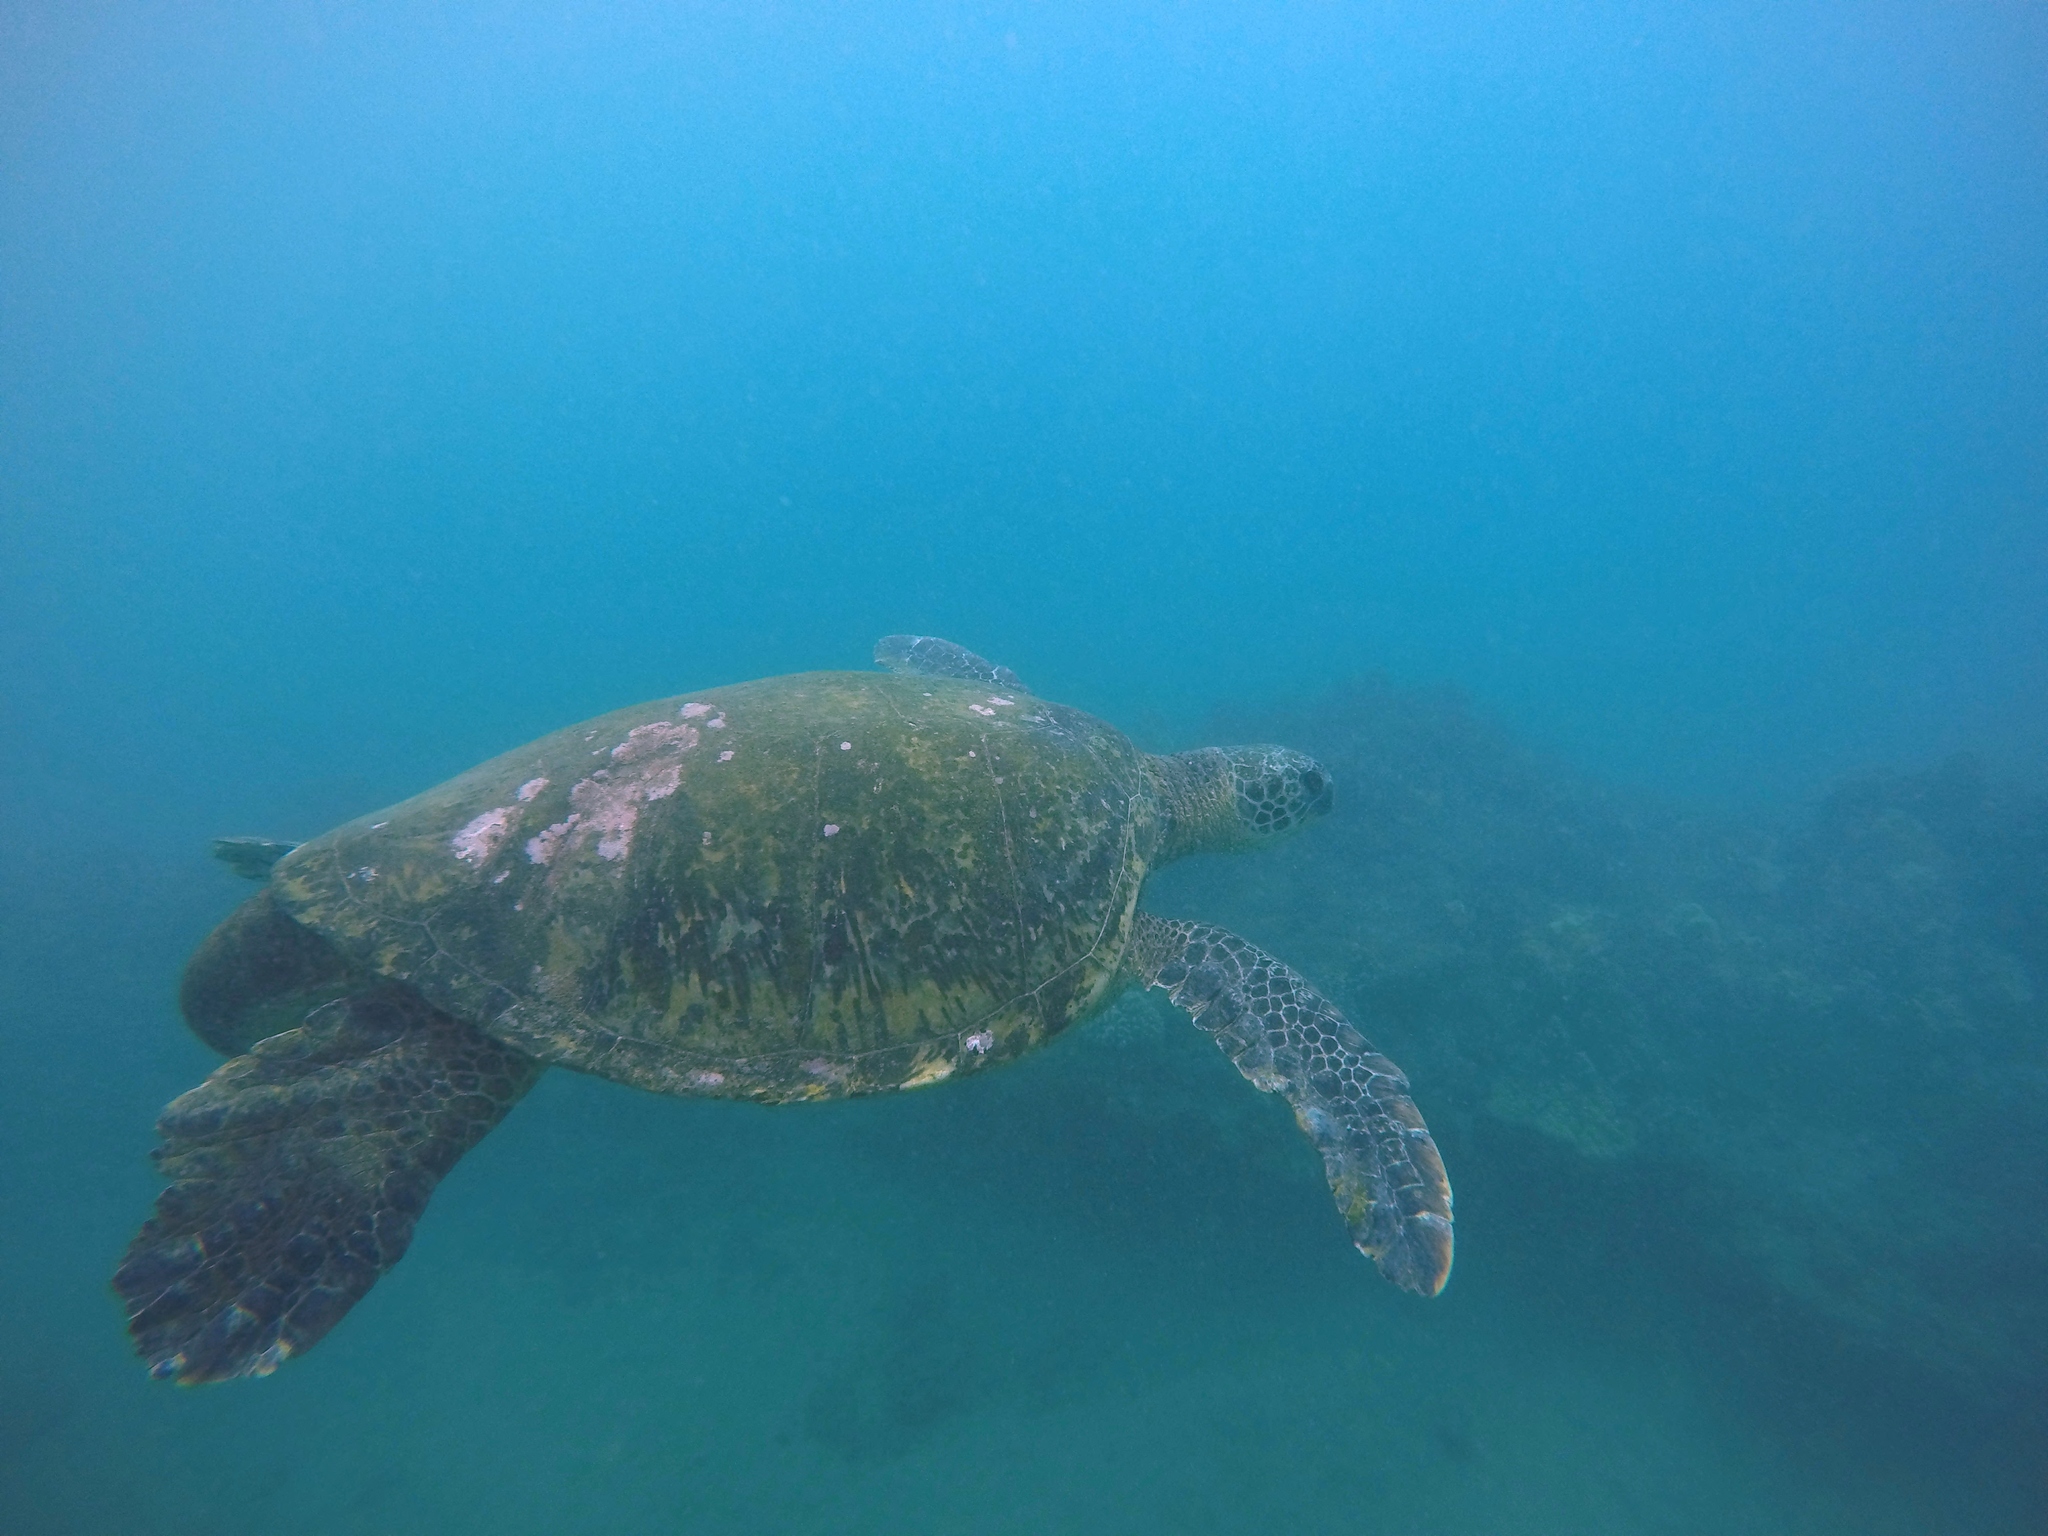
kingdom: Animalia
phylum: Chordata
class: Testudines
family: Cheloniidae
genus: Chelonia
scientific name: Chelonia mydas
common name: Green turtle
